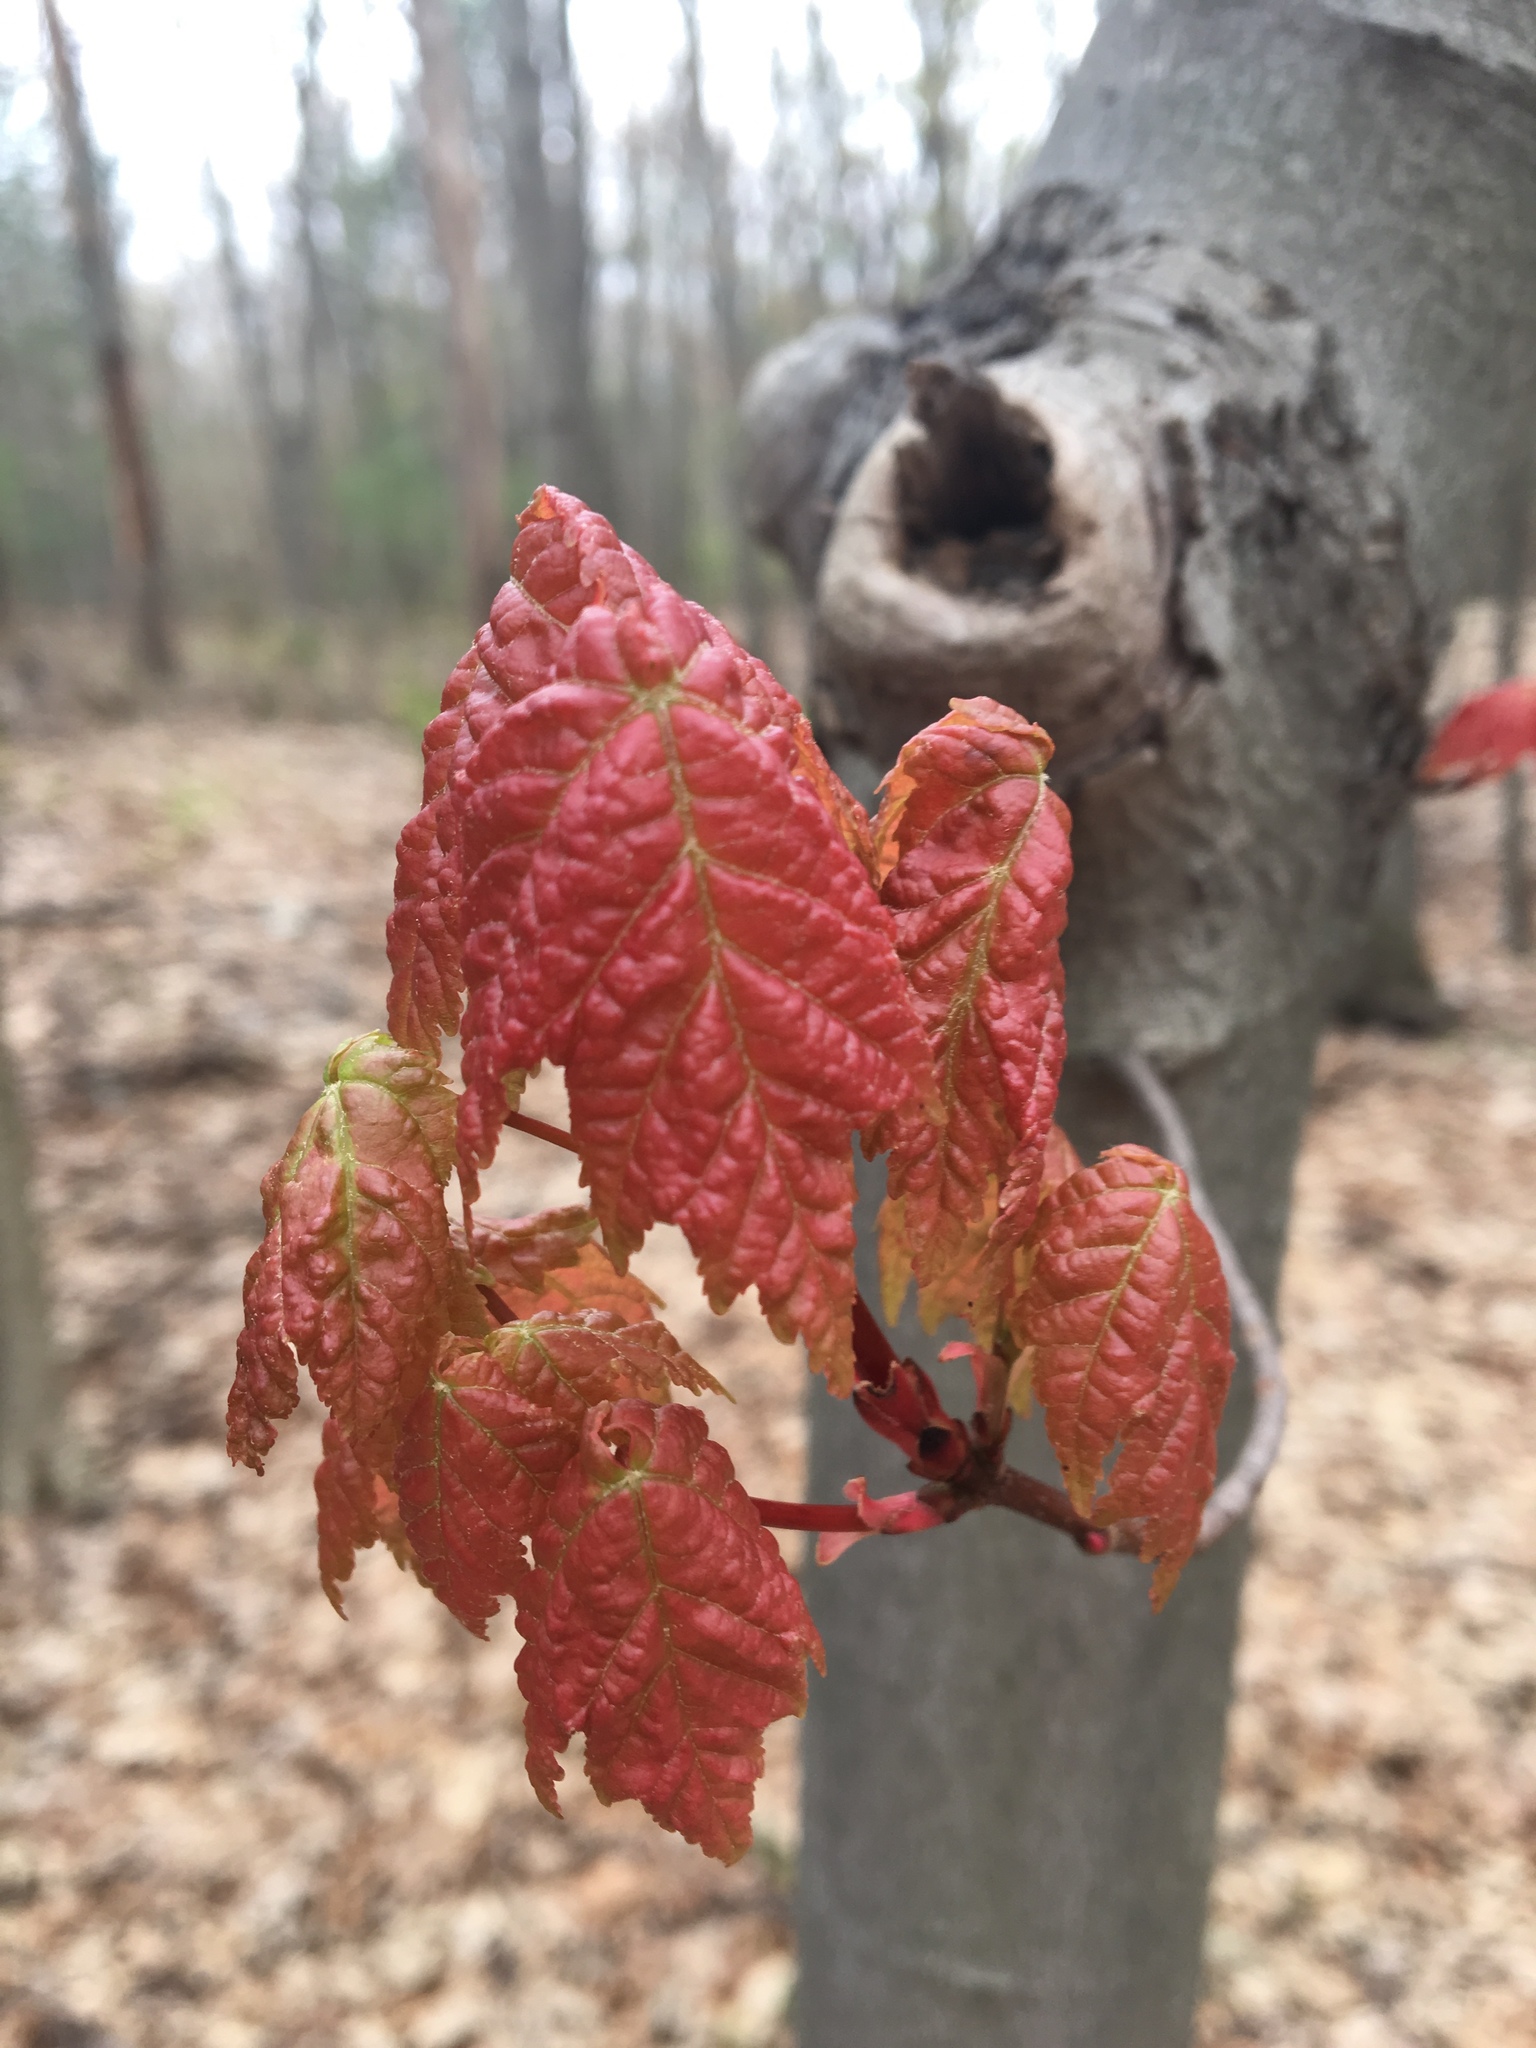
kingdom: Plantae
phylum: Tracheophyta
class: Magnoliopsida
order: Sapindales
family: Sapindaceae
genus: Acer
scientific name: Acer rubrum
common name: Red maple
